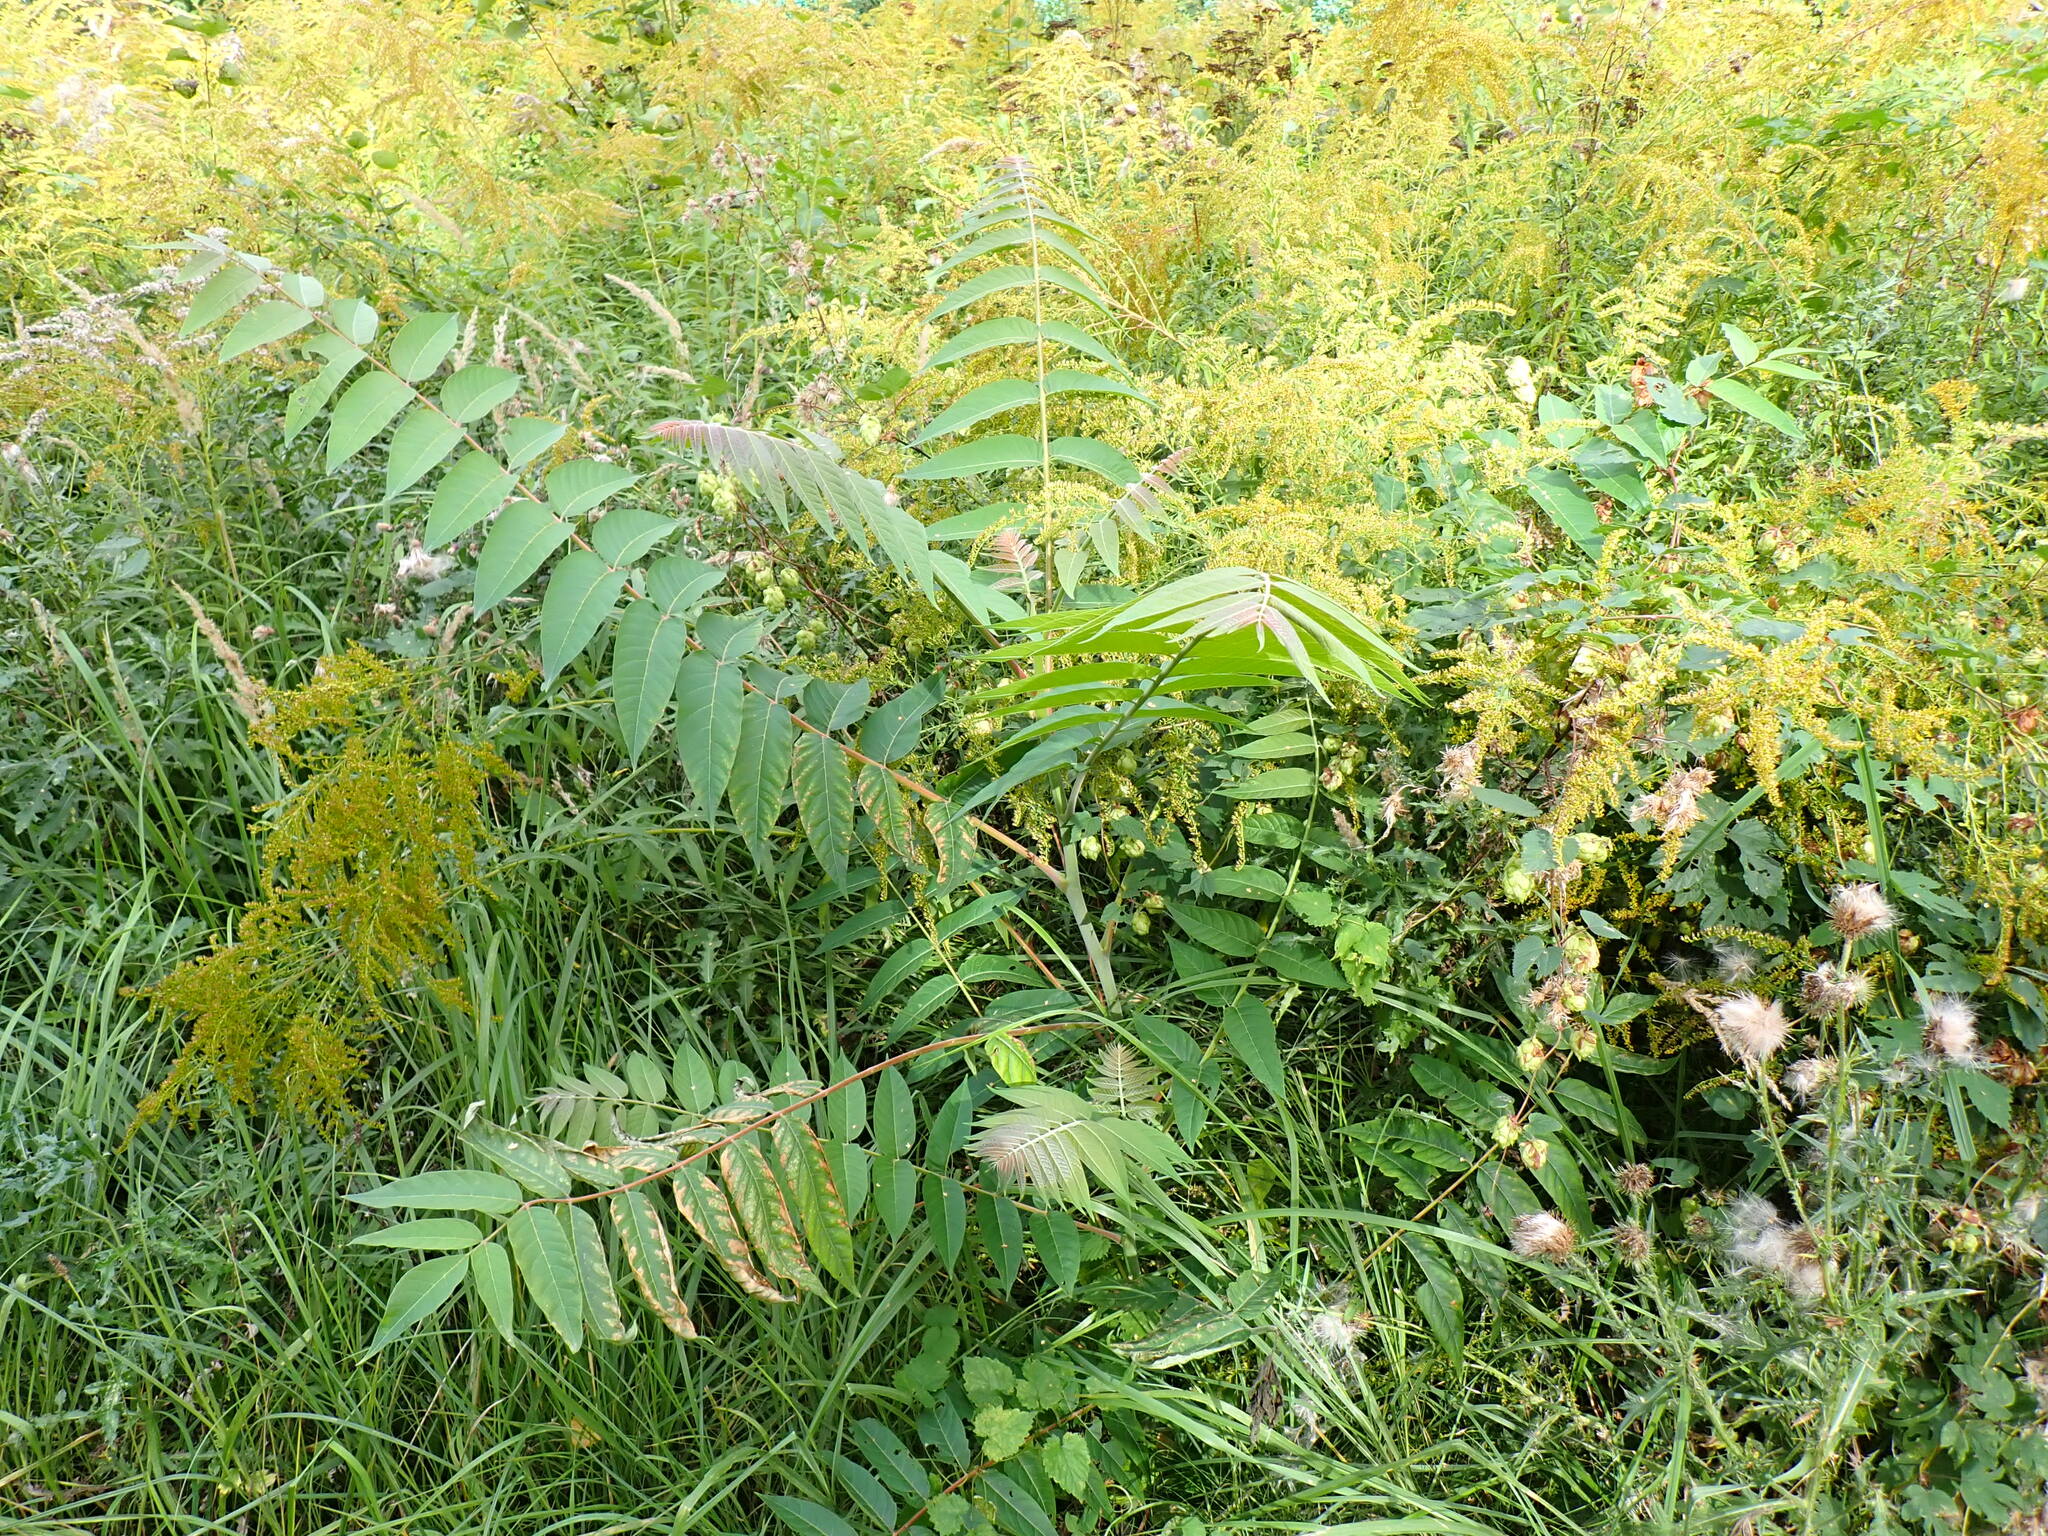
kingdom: Plantae
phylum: Tracheophyta
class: Magnoliopsida
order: Sapindales
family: Simaroubaceae
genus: Ailanthus
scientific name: Ailanthus altissima
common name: Tree-of-heaven
